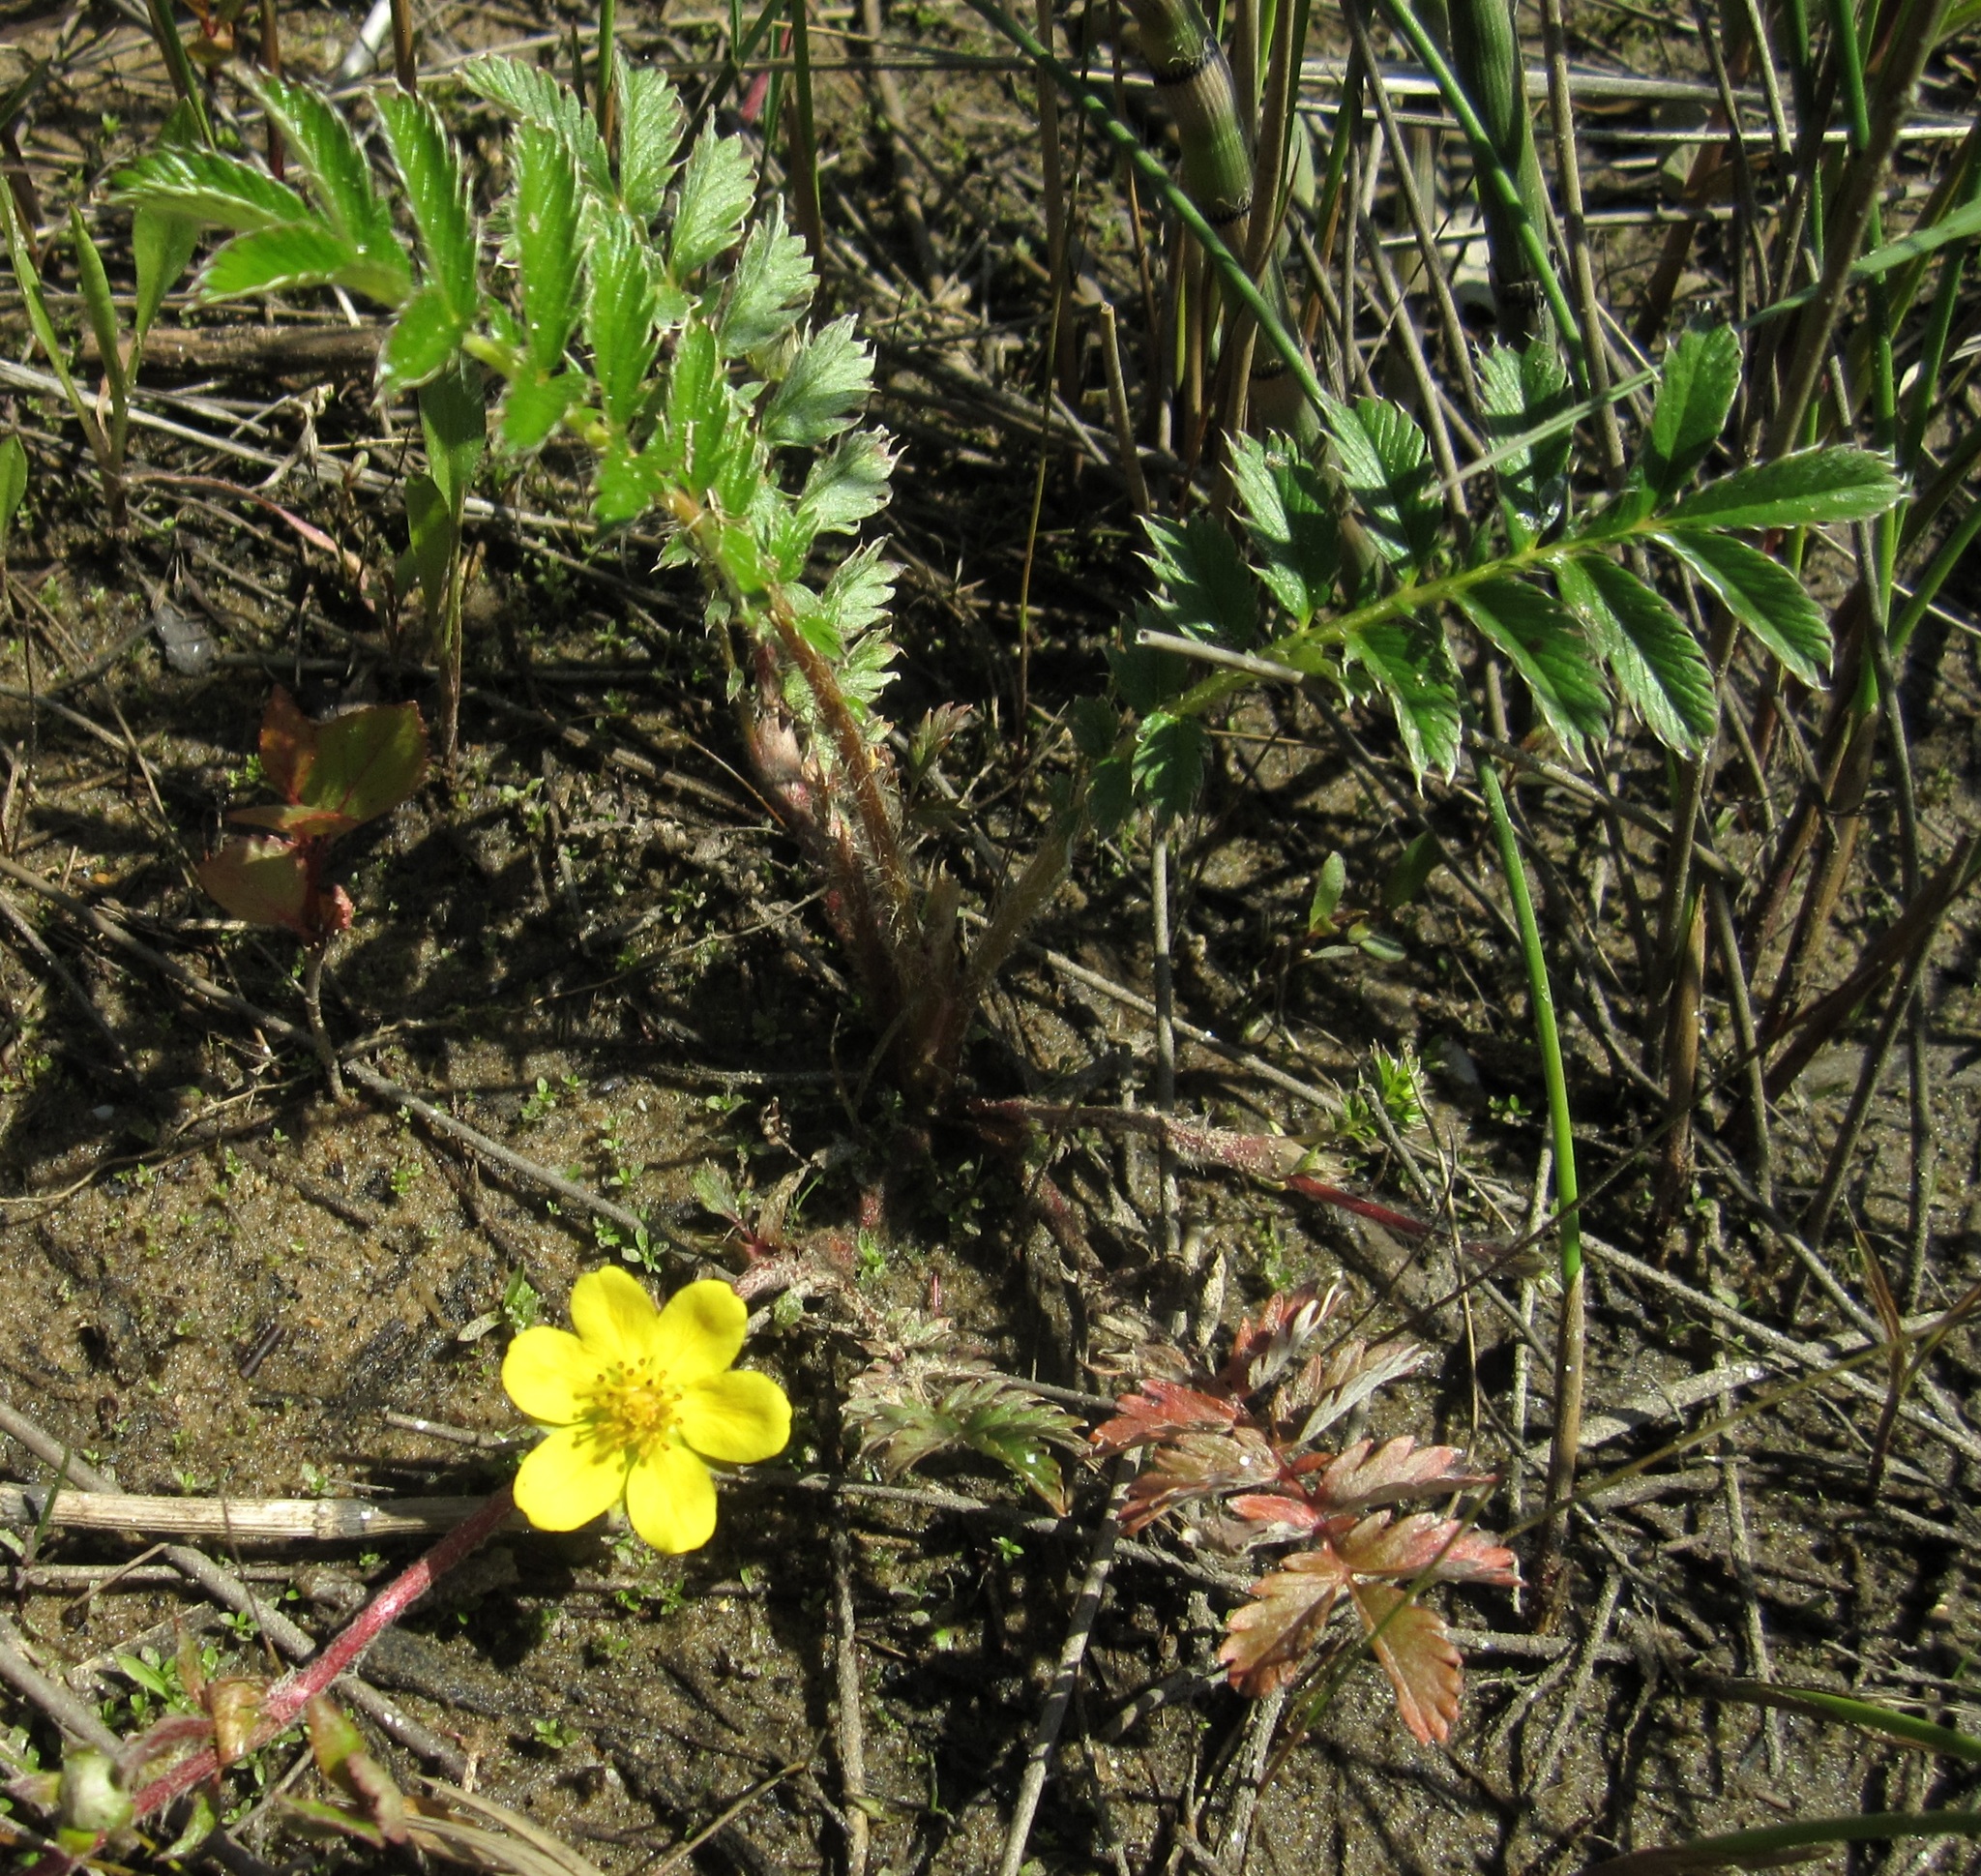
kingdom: Plantae
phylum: Tracheophyta
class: Magnoliopsida
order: Rosales
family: Rosaceae
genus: Argentina
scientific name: Argentina anserina
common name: Common silverweed
